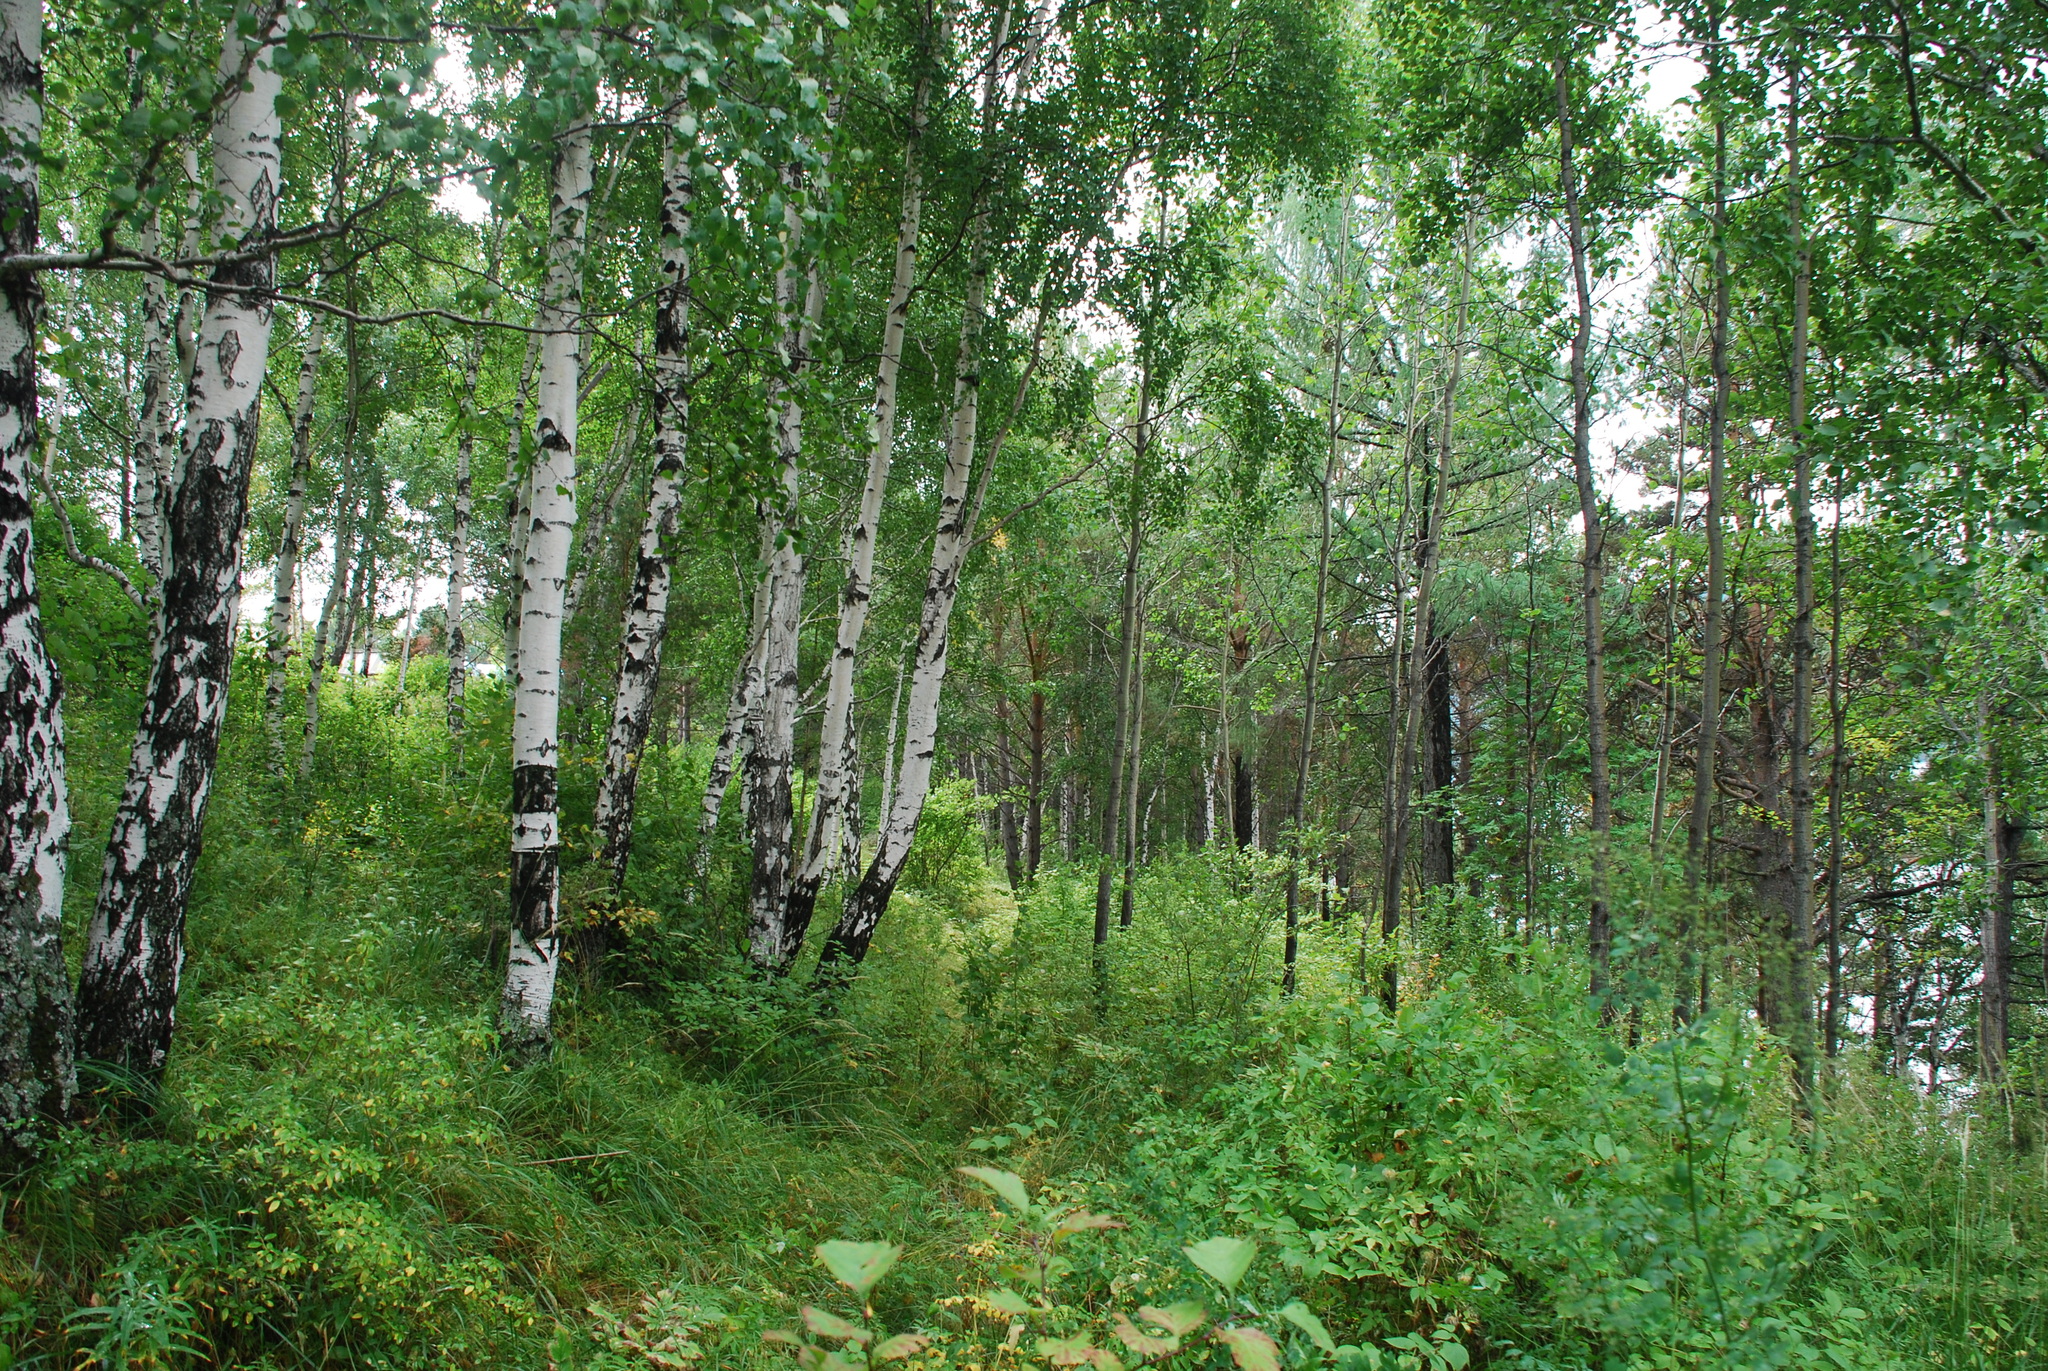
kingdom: Plantae
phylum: Tracheophyta
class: Magnoliopsida
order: Fagales
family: Betulaceae
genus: Betula
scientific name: Betula pendula
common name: Silver birch
